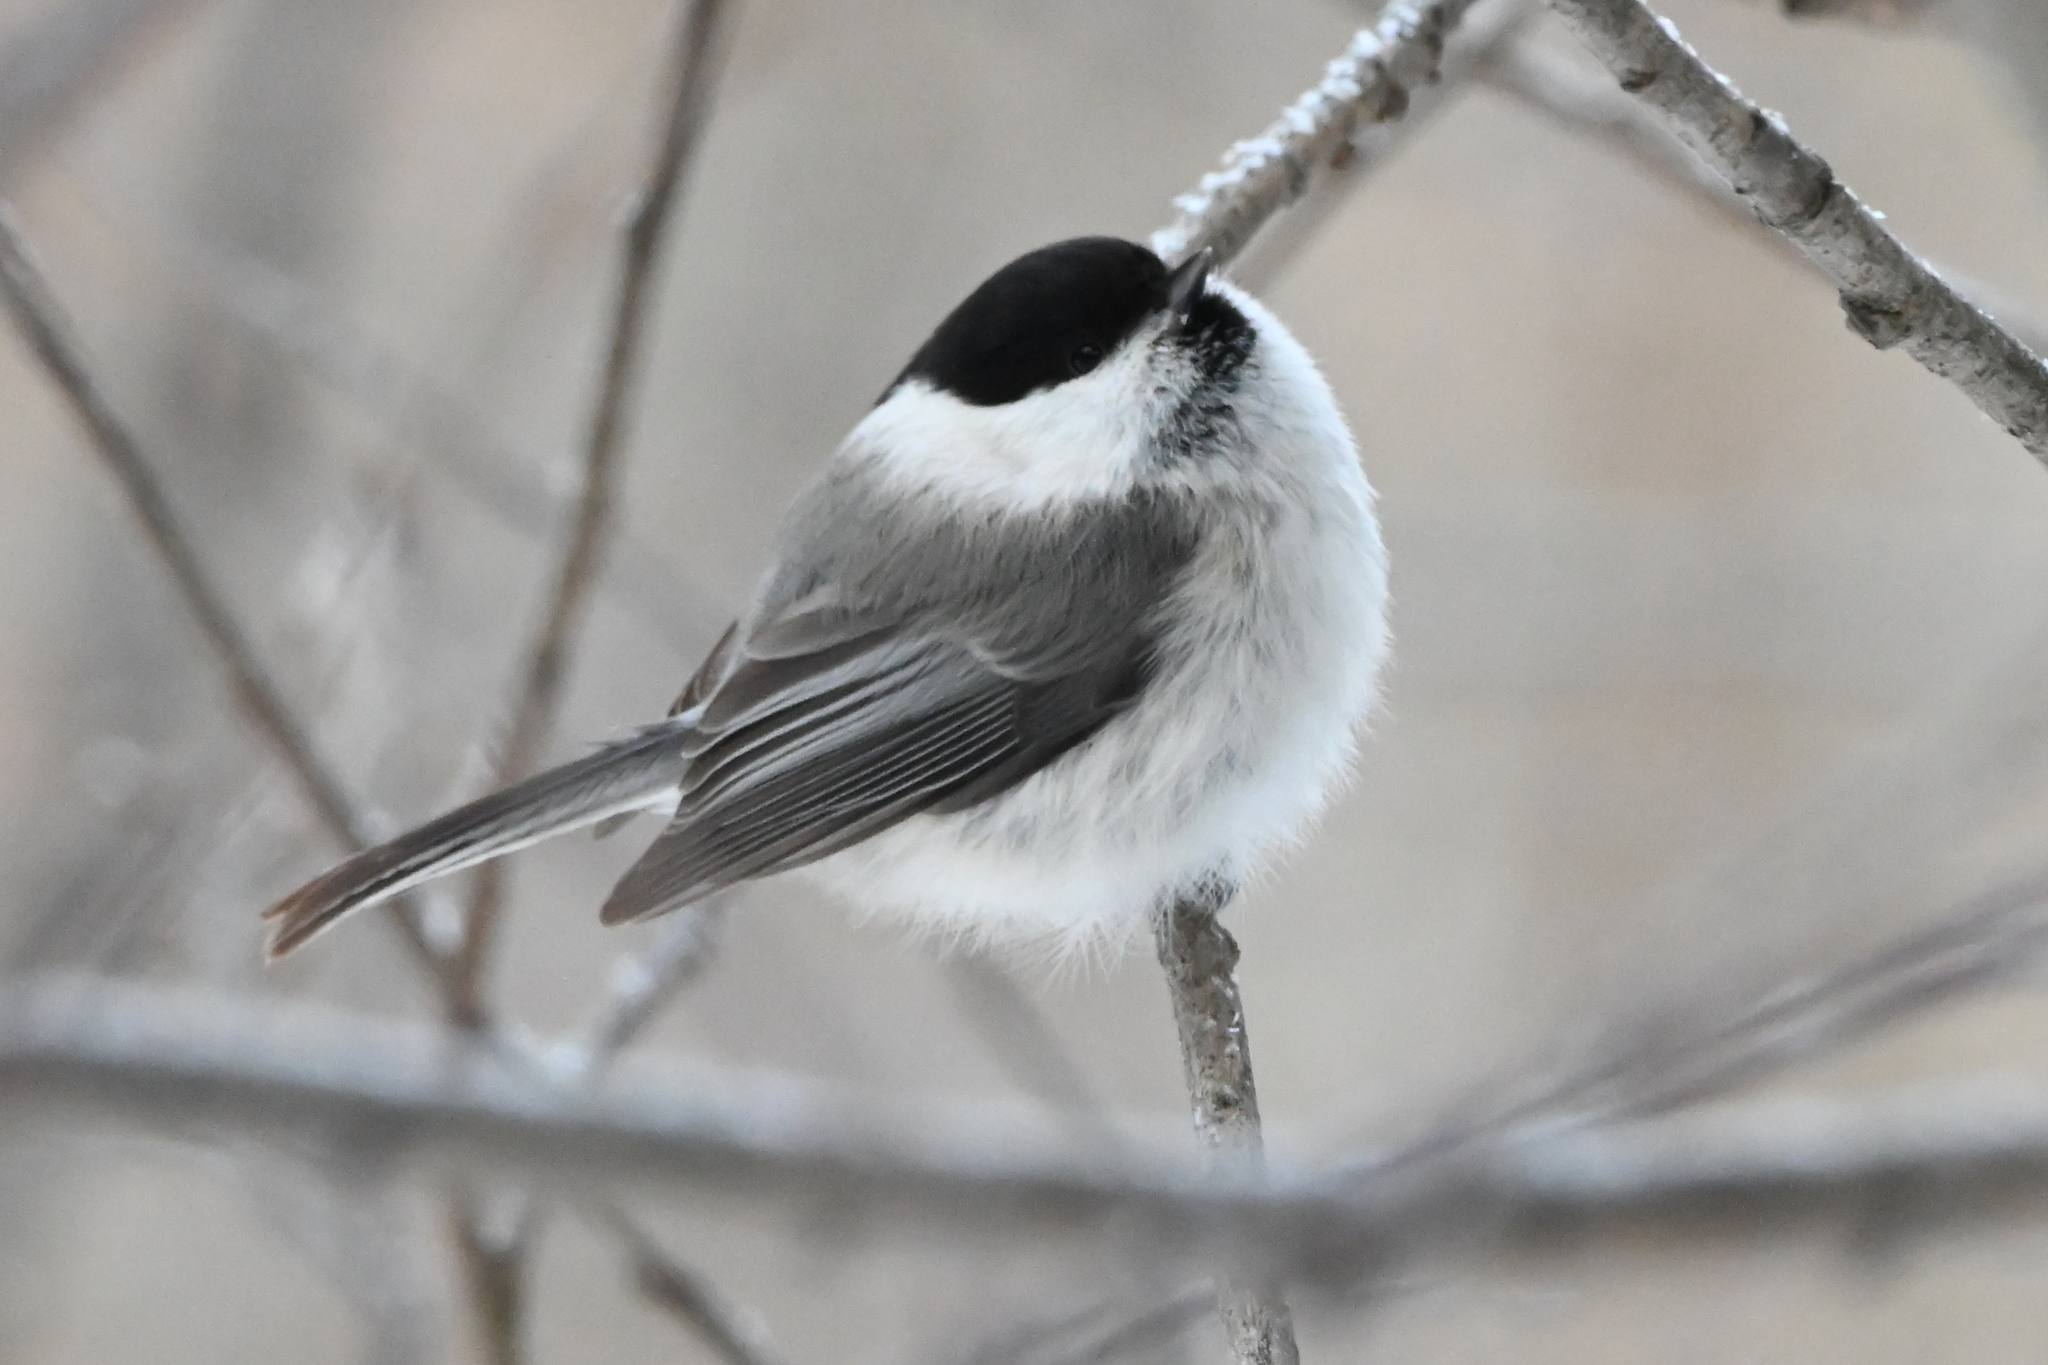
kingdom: Animalia
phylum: Chordata
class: Aves
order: Passeriformes
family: Paridae
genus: Poecile
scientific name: Poecile montanus
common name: Willow tit
